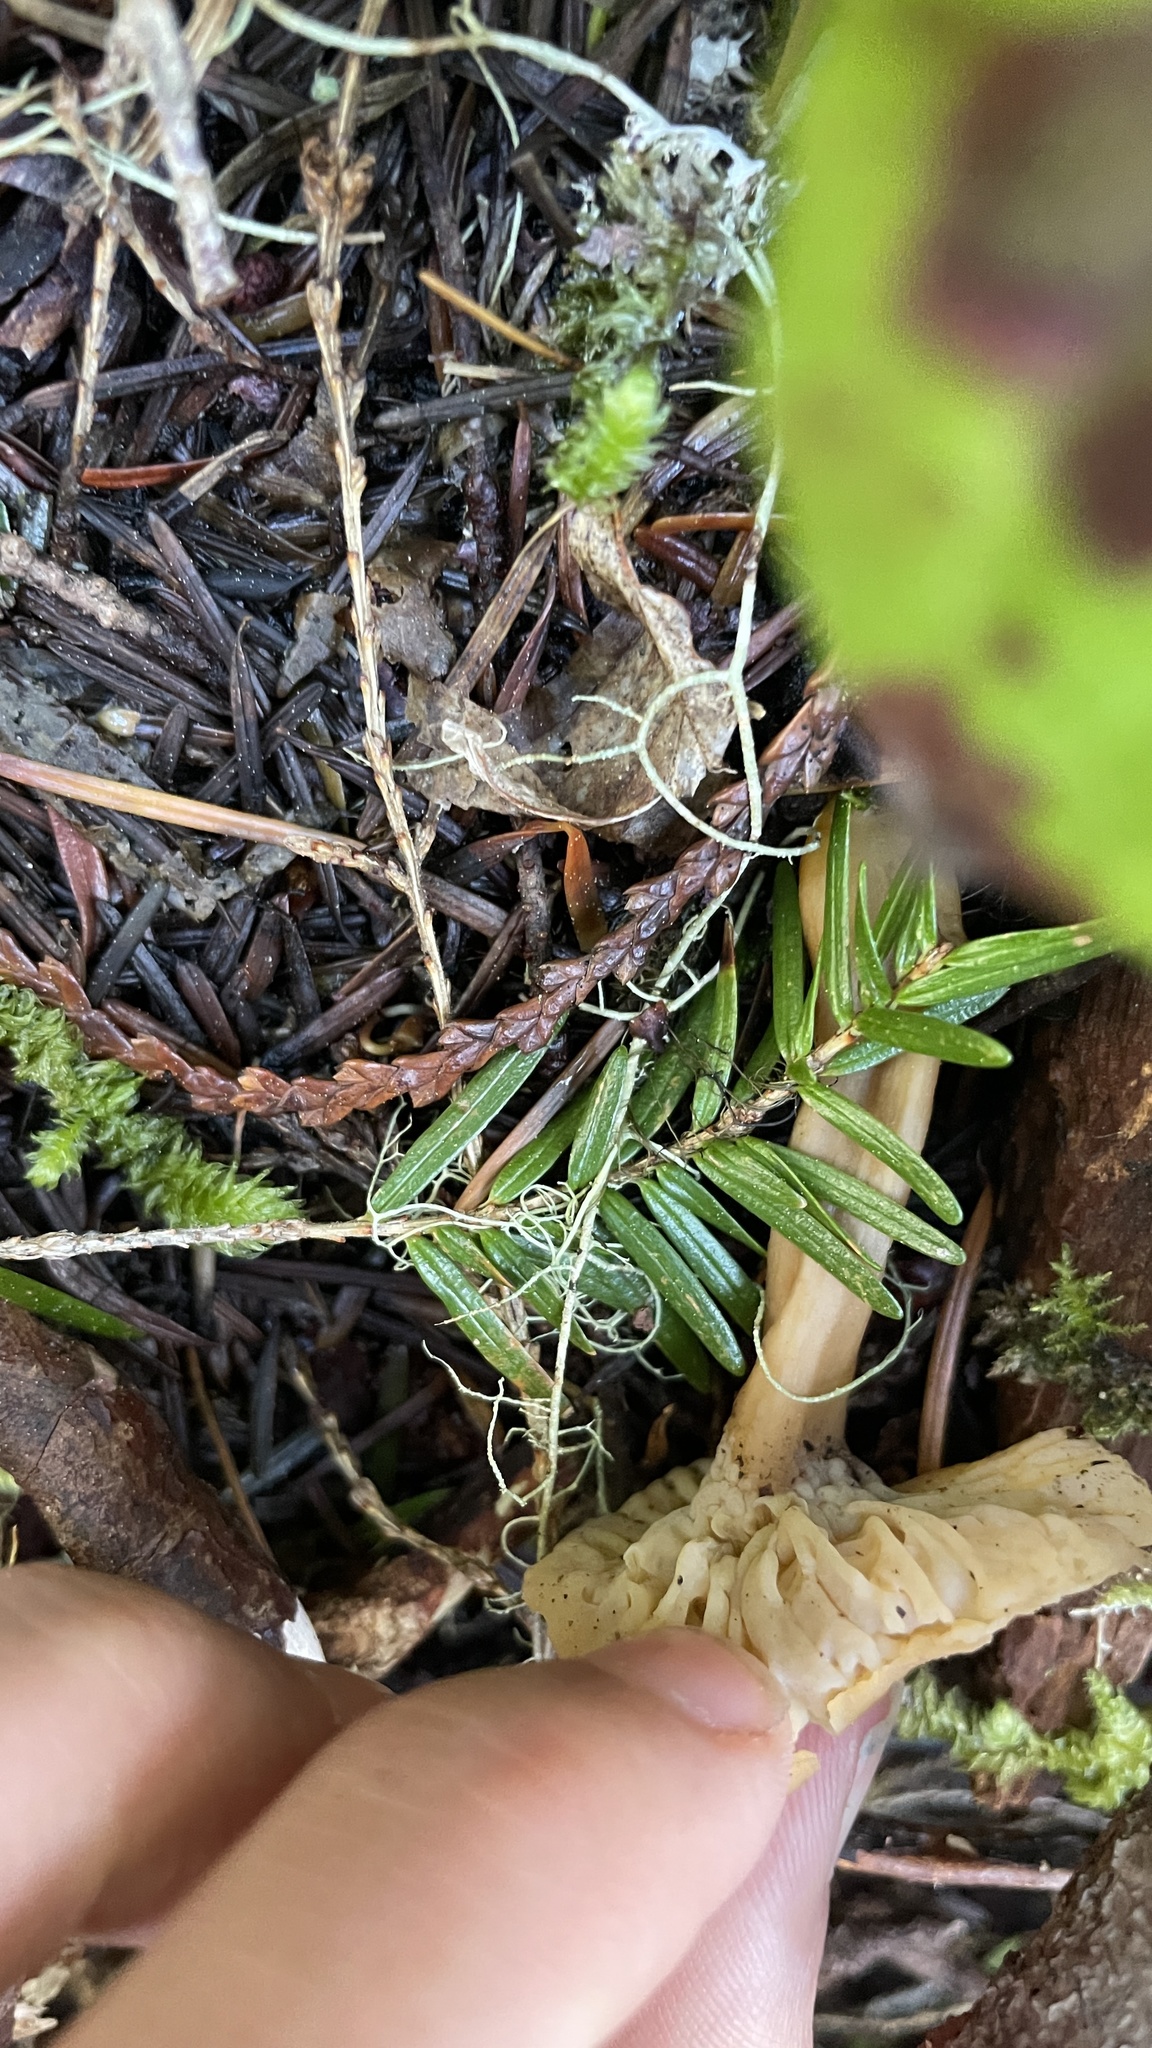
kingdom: Fungi
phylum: Basidiomycota
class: Agaricomycetes
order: Cantharellales
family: Hydnaceae
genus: Craterellus
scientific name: Craterellus tubaeformis
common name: Yellowfoot
